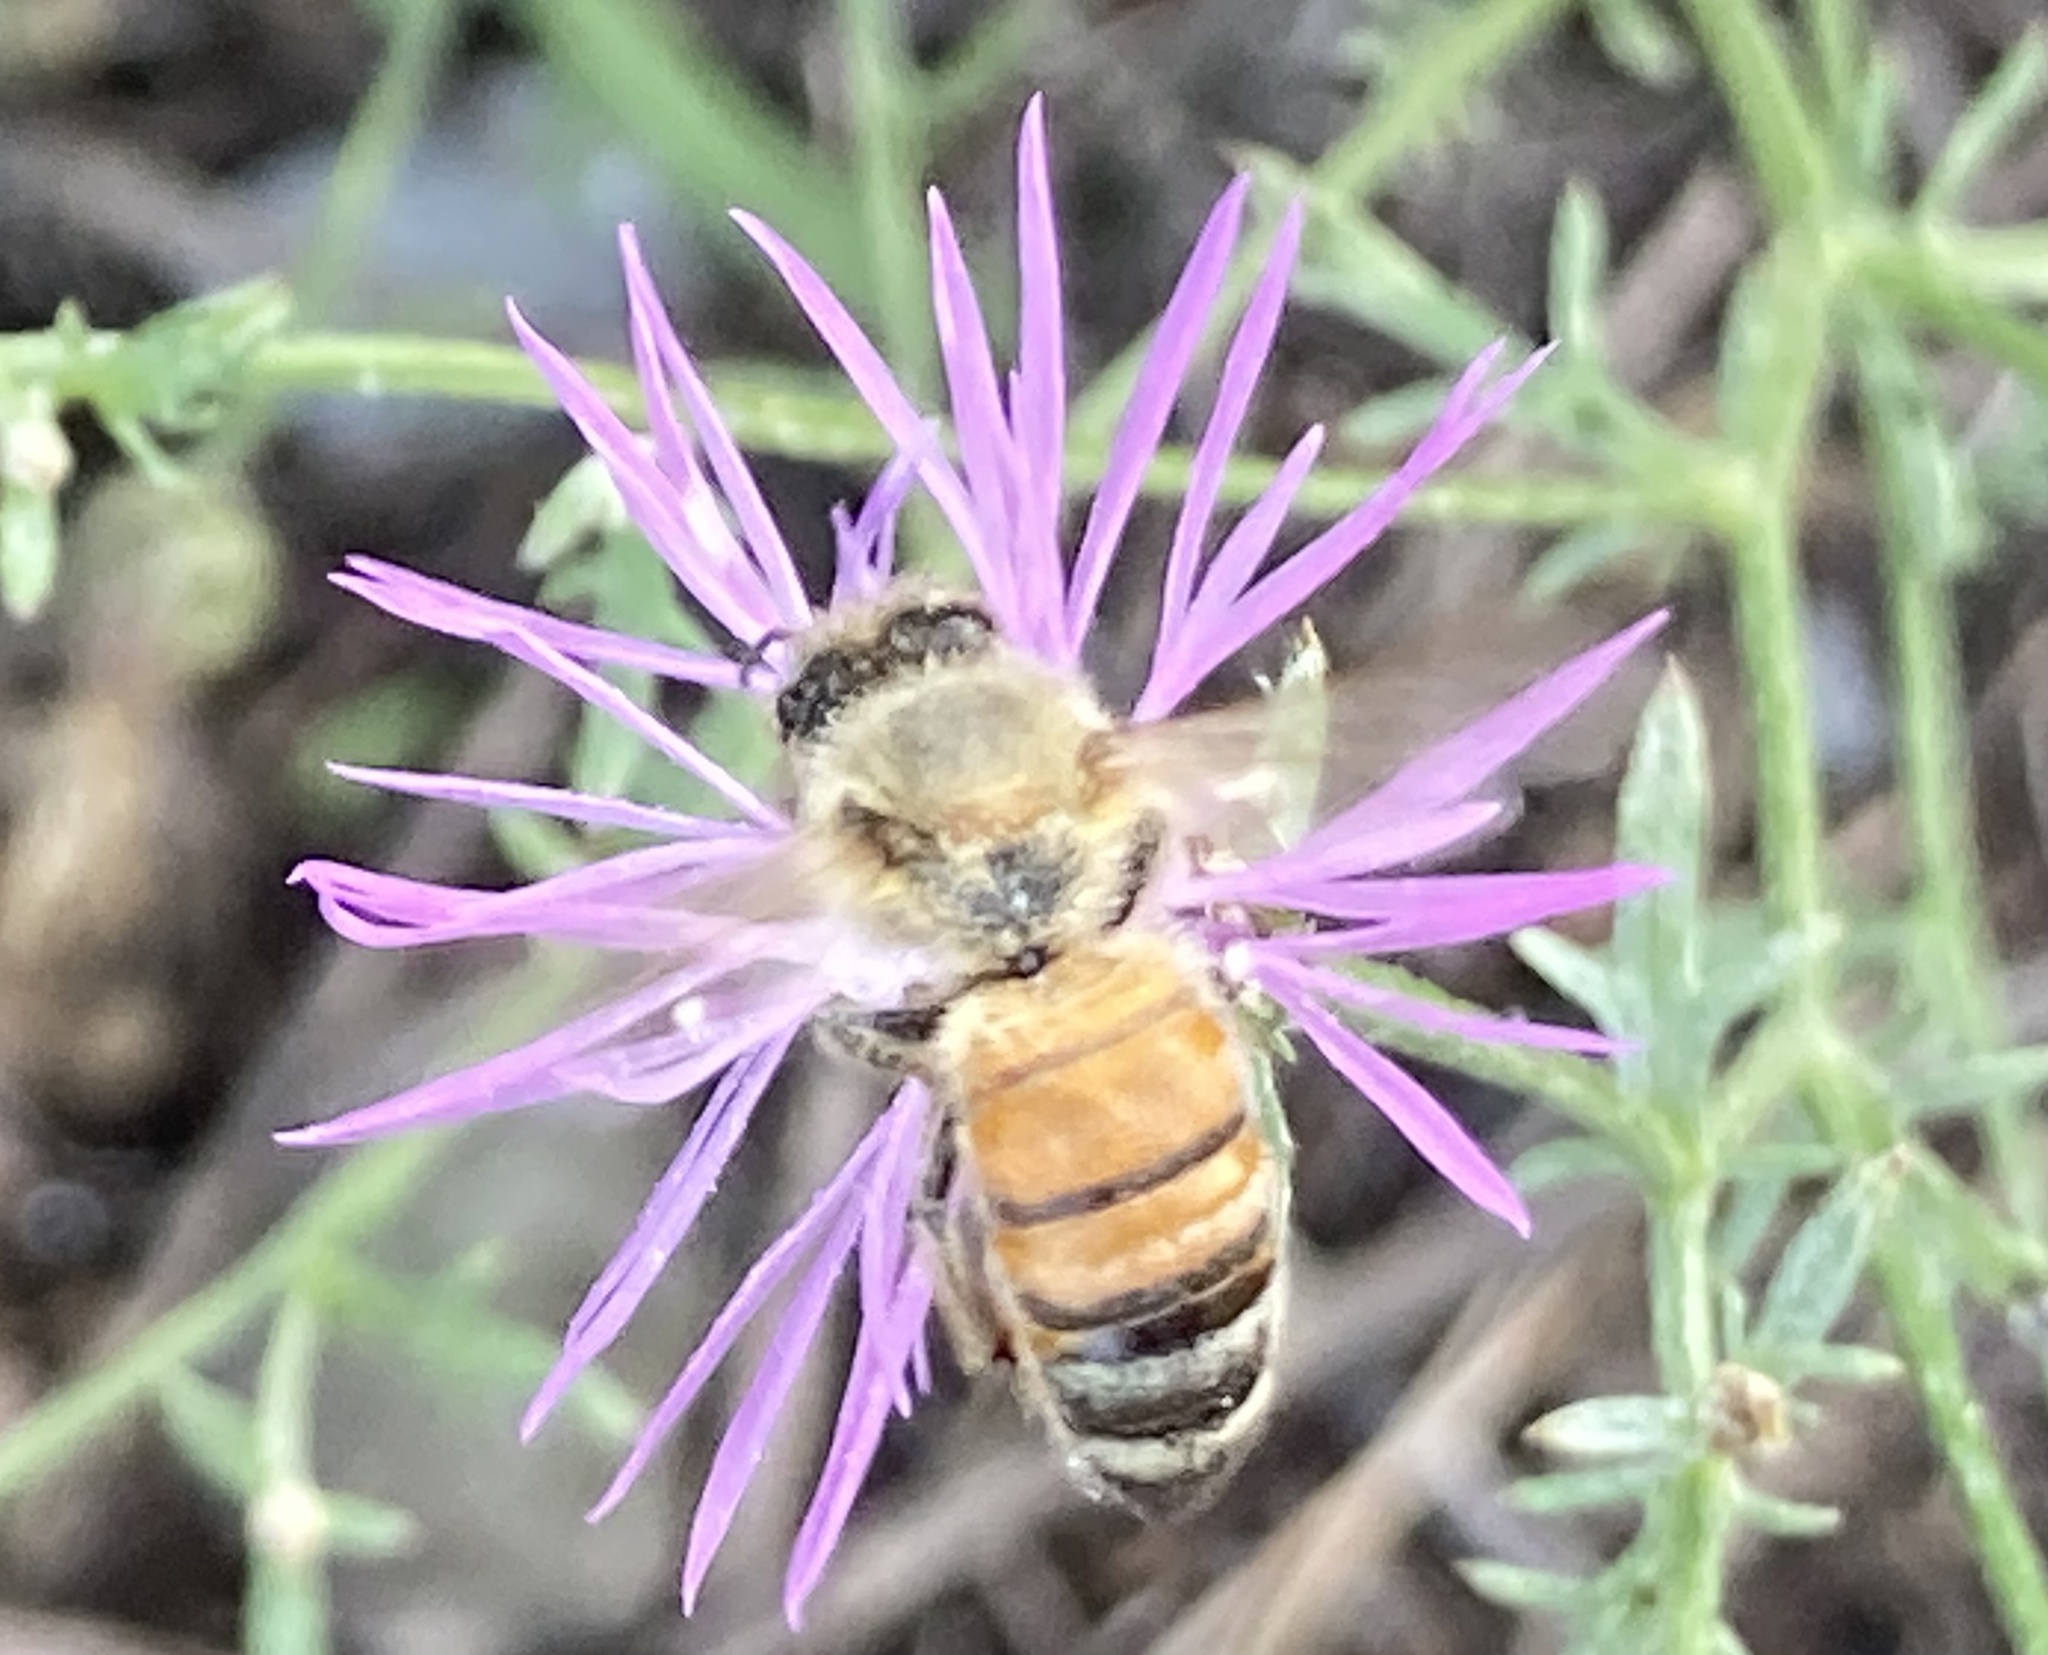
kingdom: Animalia
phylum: Arthropoda
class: Insecta
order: Hymenoptera
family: Apidae
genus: Apis
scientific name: Apis mellifera
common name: Honey bee
